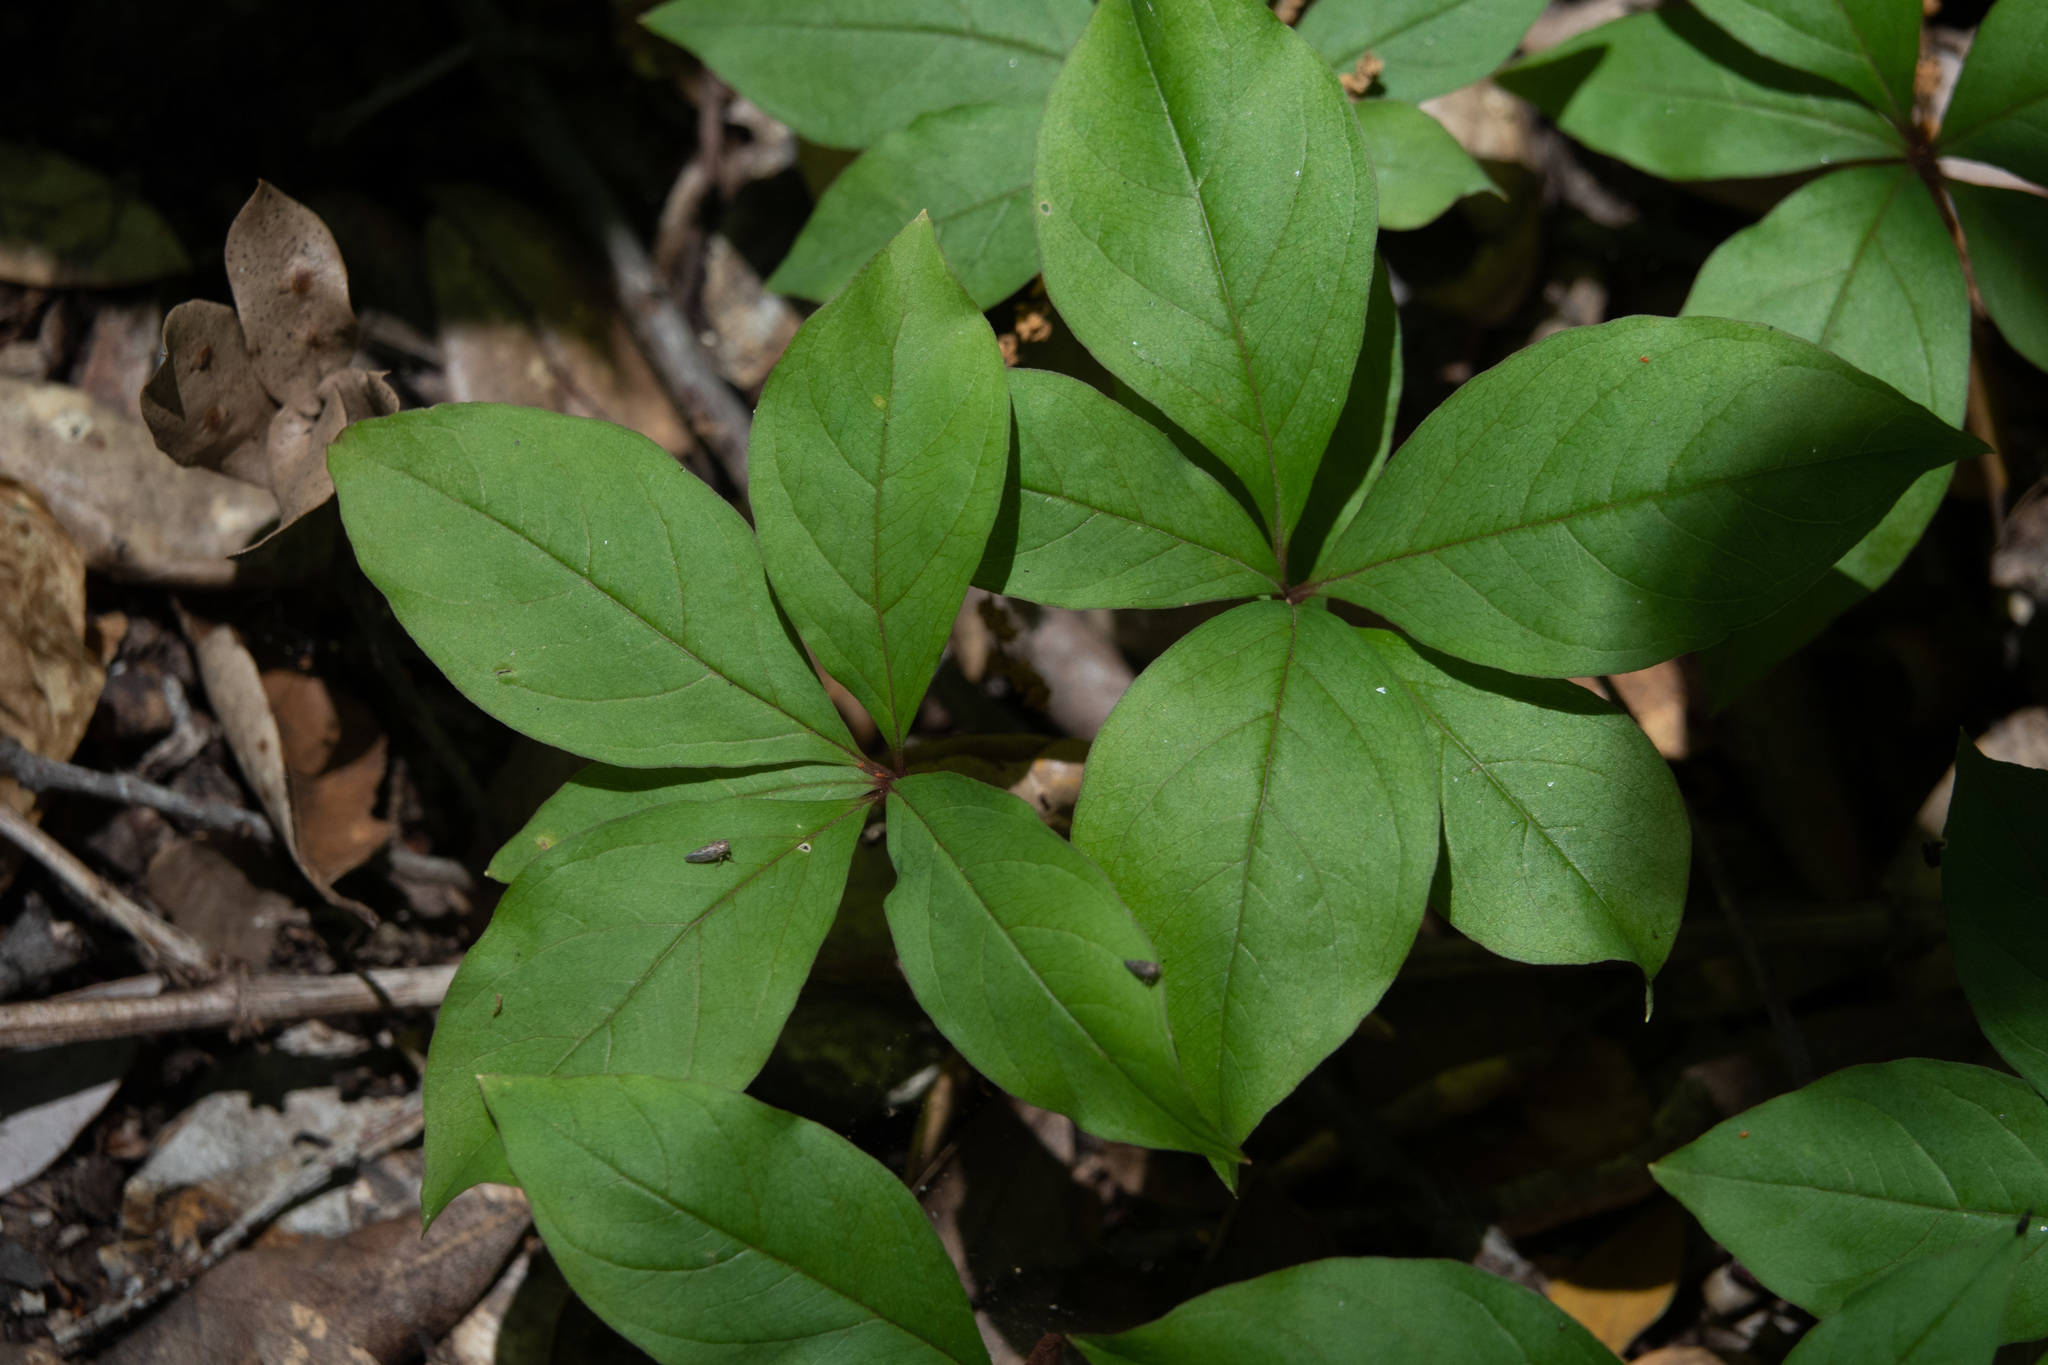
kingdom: Plantae
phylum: Tracheophyta
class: Magnoliopsida
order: Ericales
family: Primulaceae
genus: Lysimachia
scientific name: Lysimachia latifolia
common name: Pacific starflower
